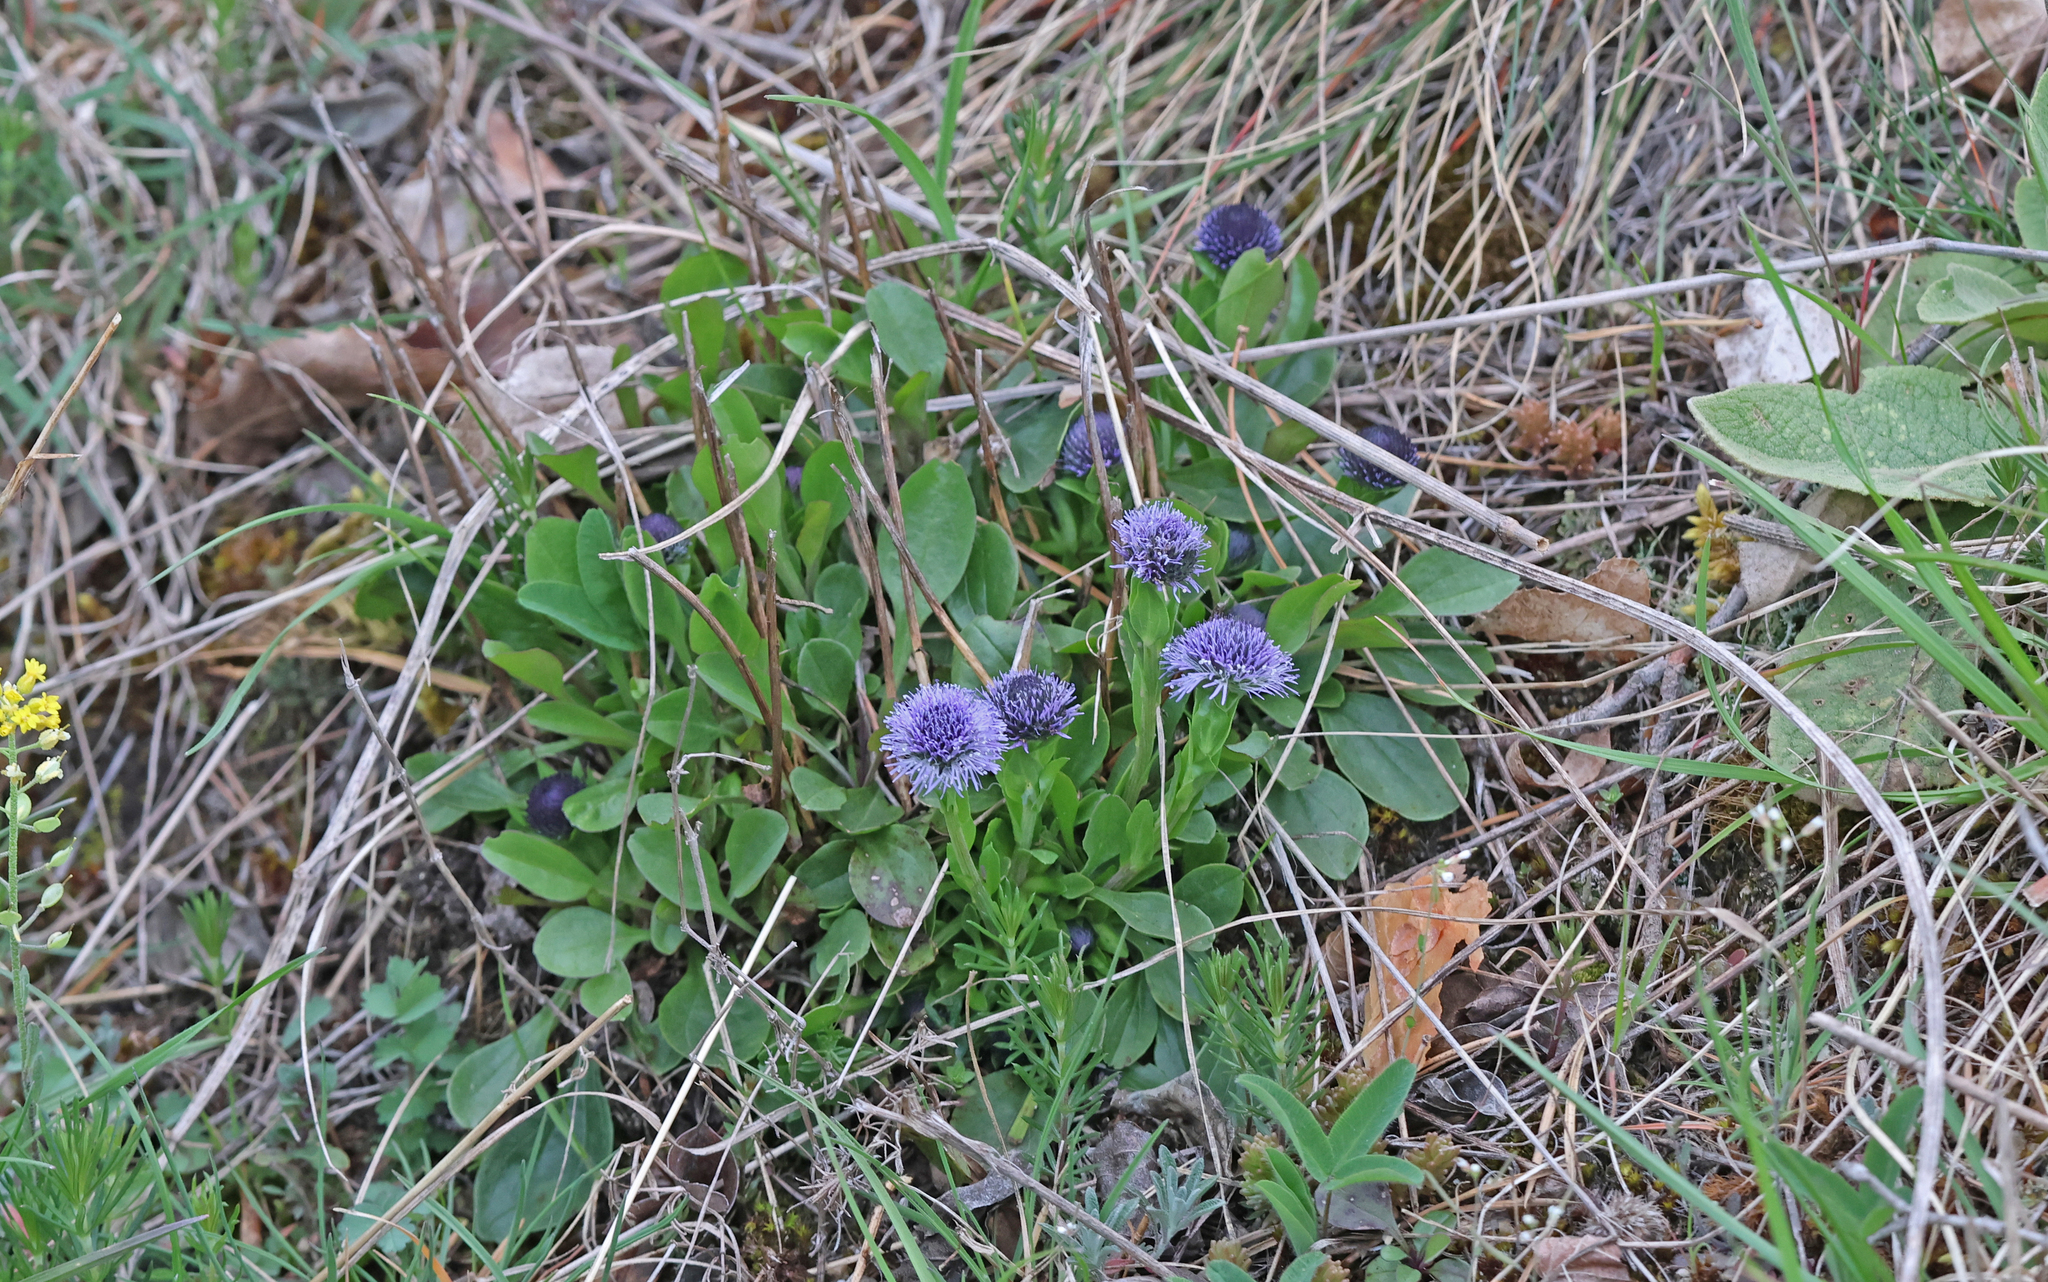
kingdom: Plantae
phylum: Tracheophyta
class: Magnoliopsida
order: Lamiales
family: Plantaginaceae
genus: Globularia
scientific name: Globularia bisnagarica
